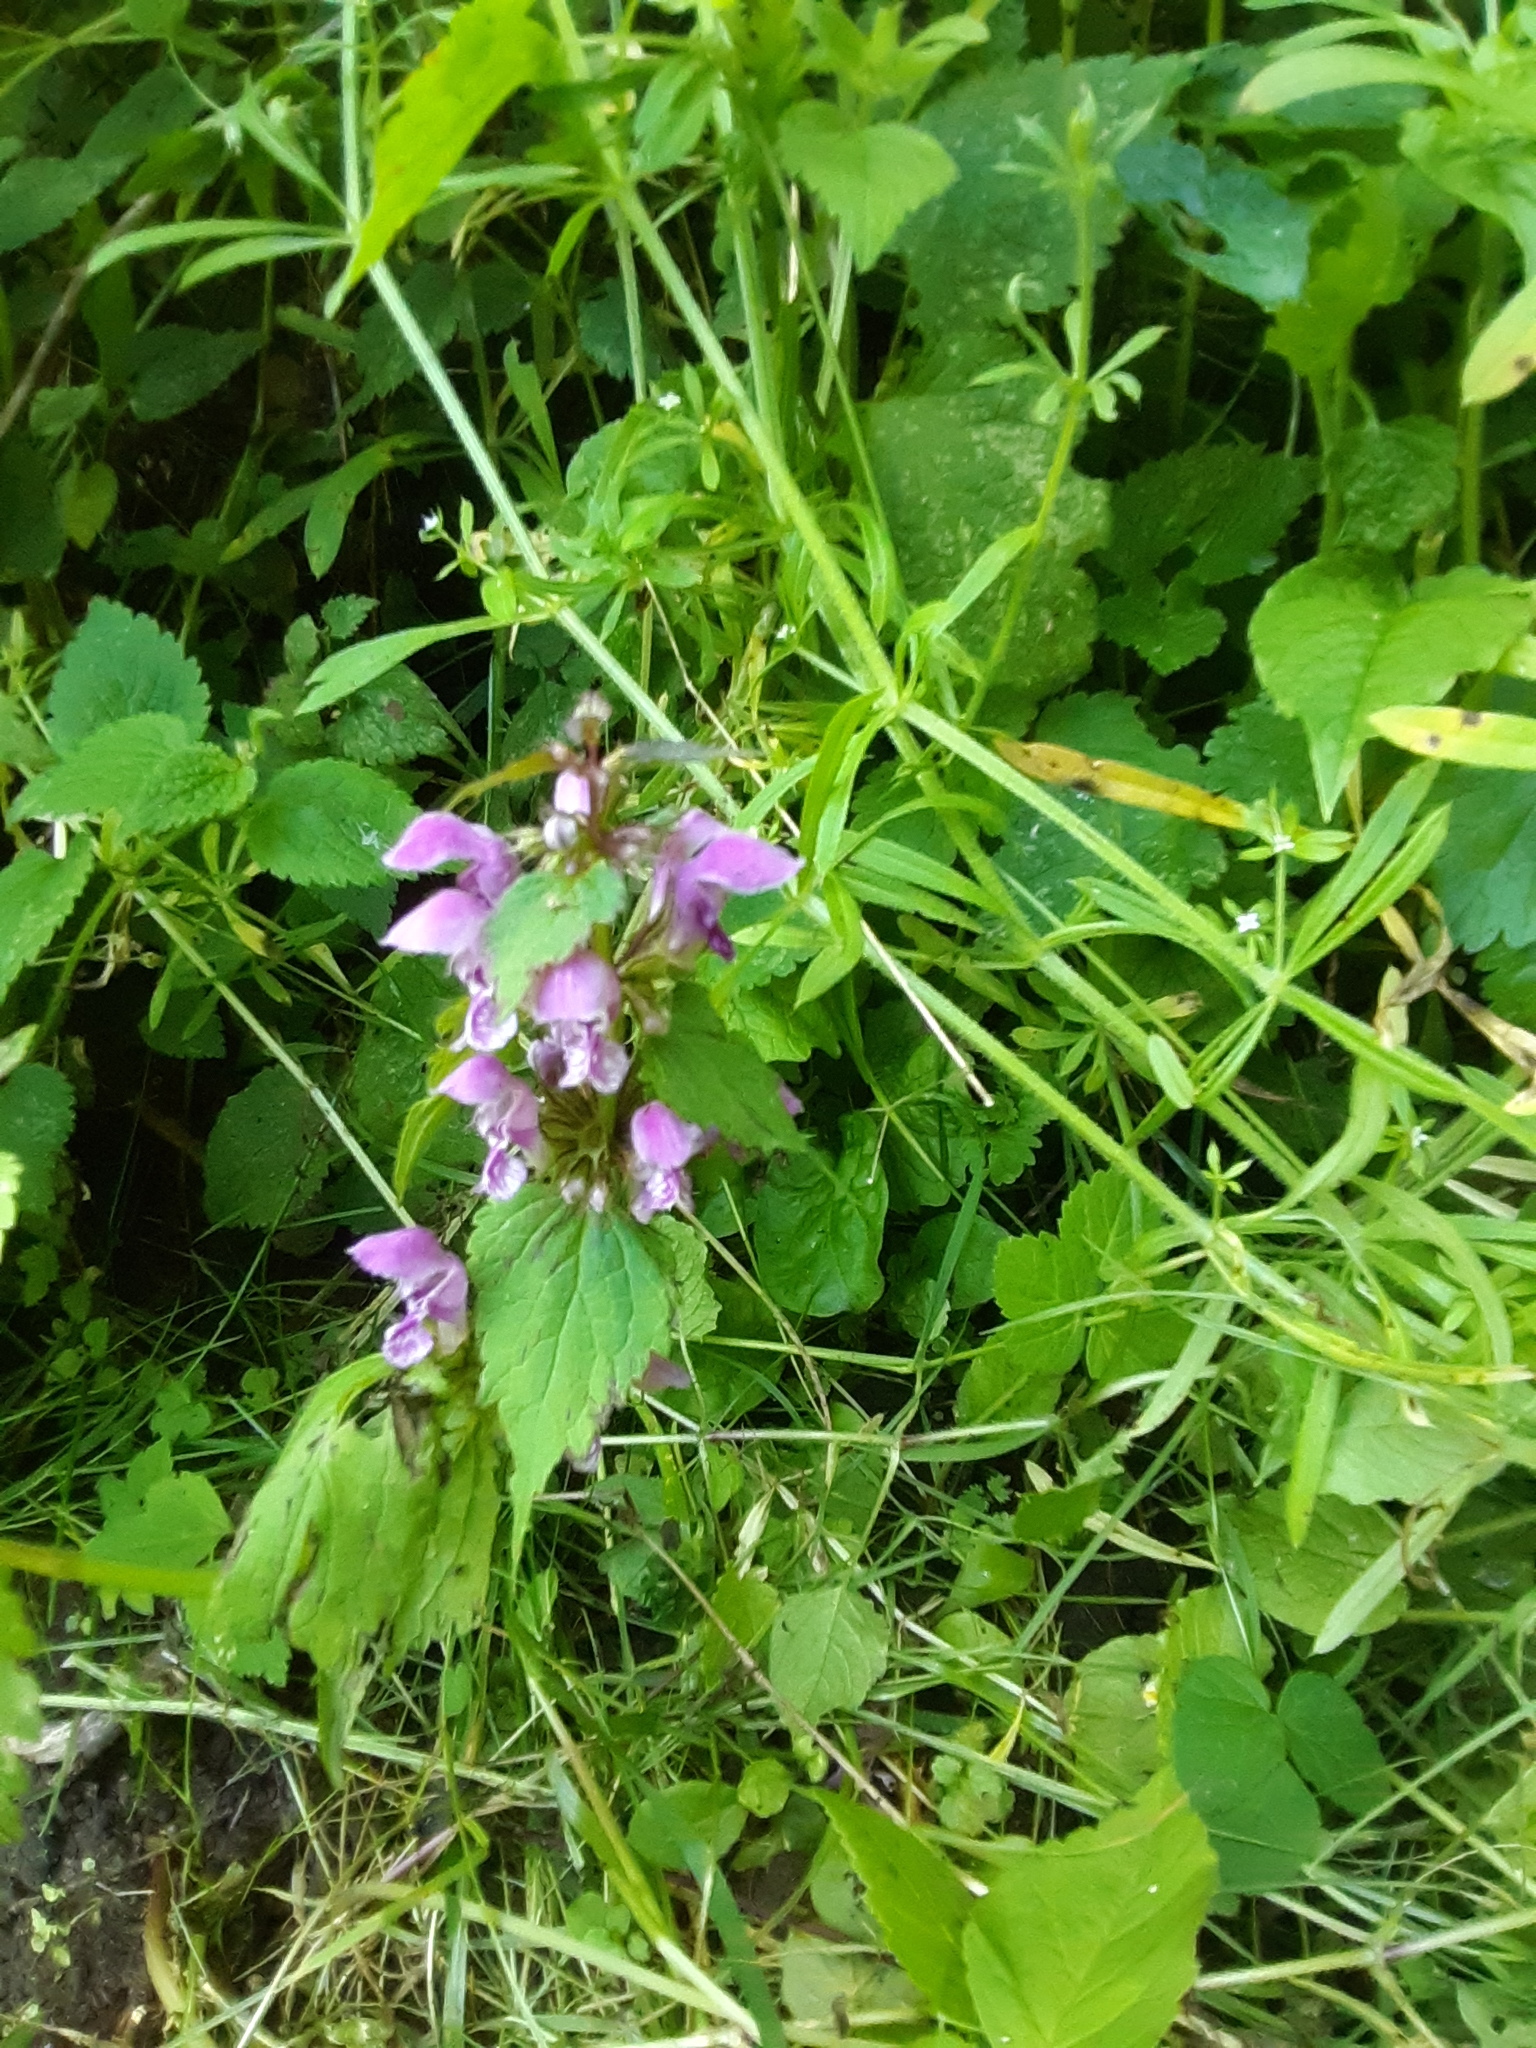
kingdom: Plantae
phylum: Tracheophyta
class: Magnoliopsida
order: Lamiales
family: Lamiaceae
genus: Lamium
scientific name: Lamium maculatum
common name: Spotted dead-nettle
